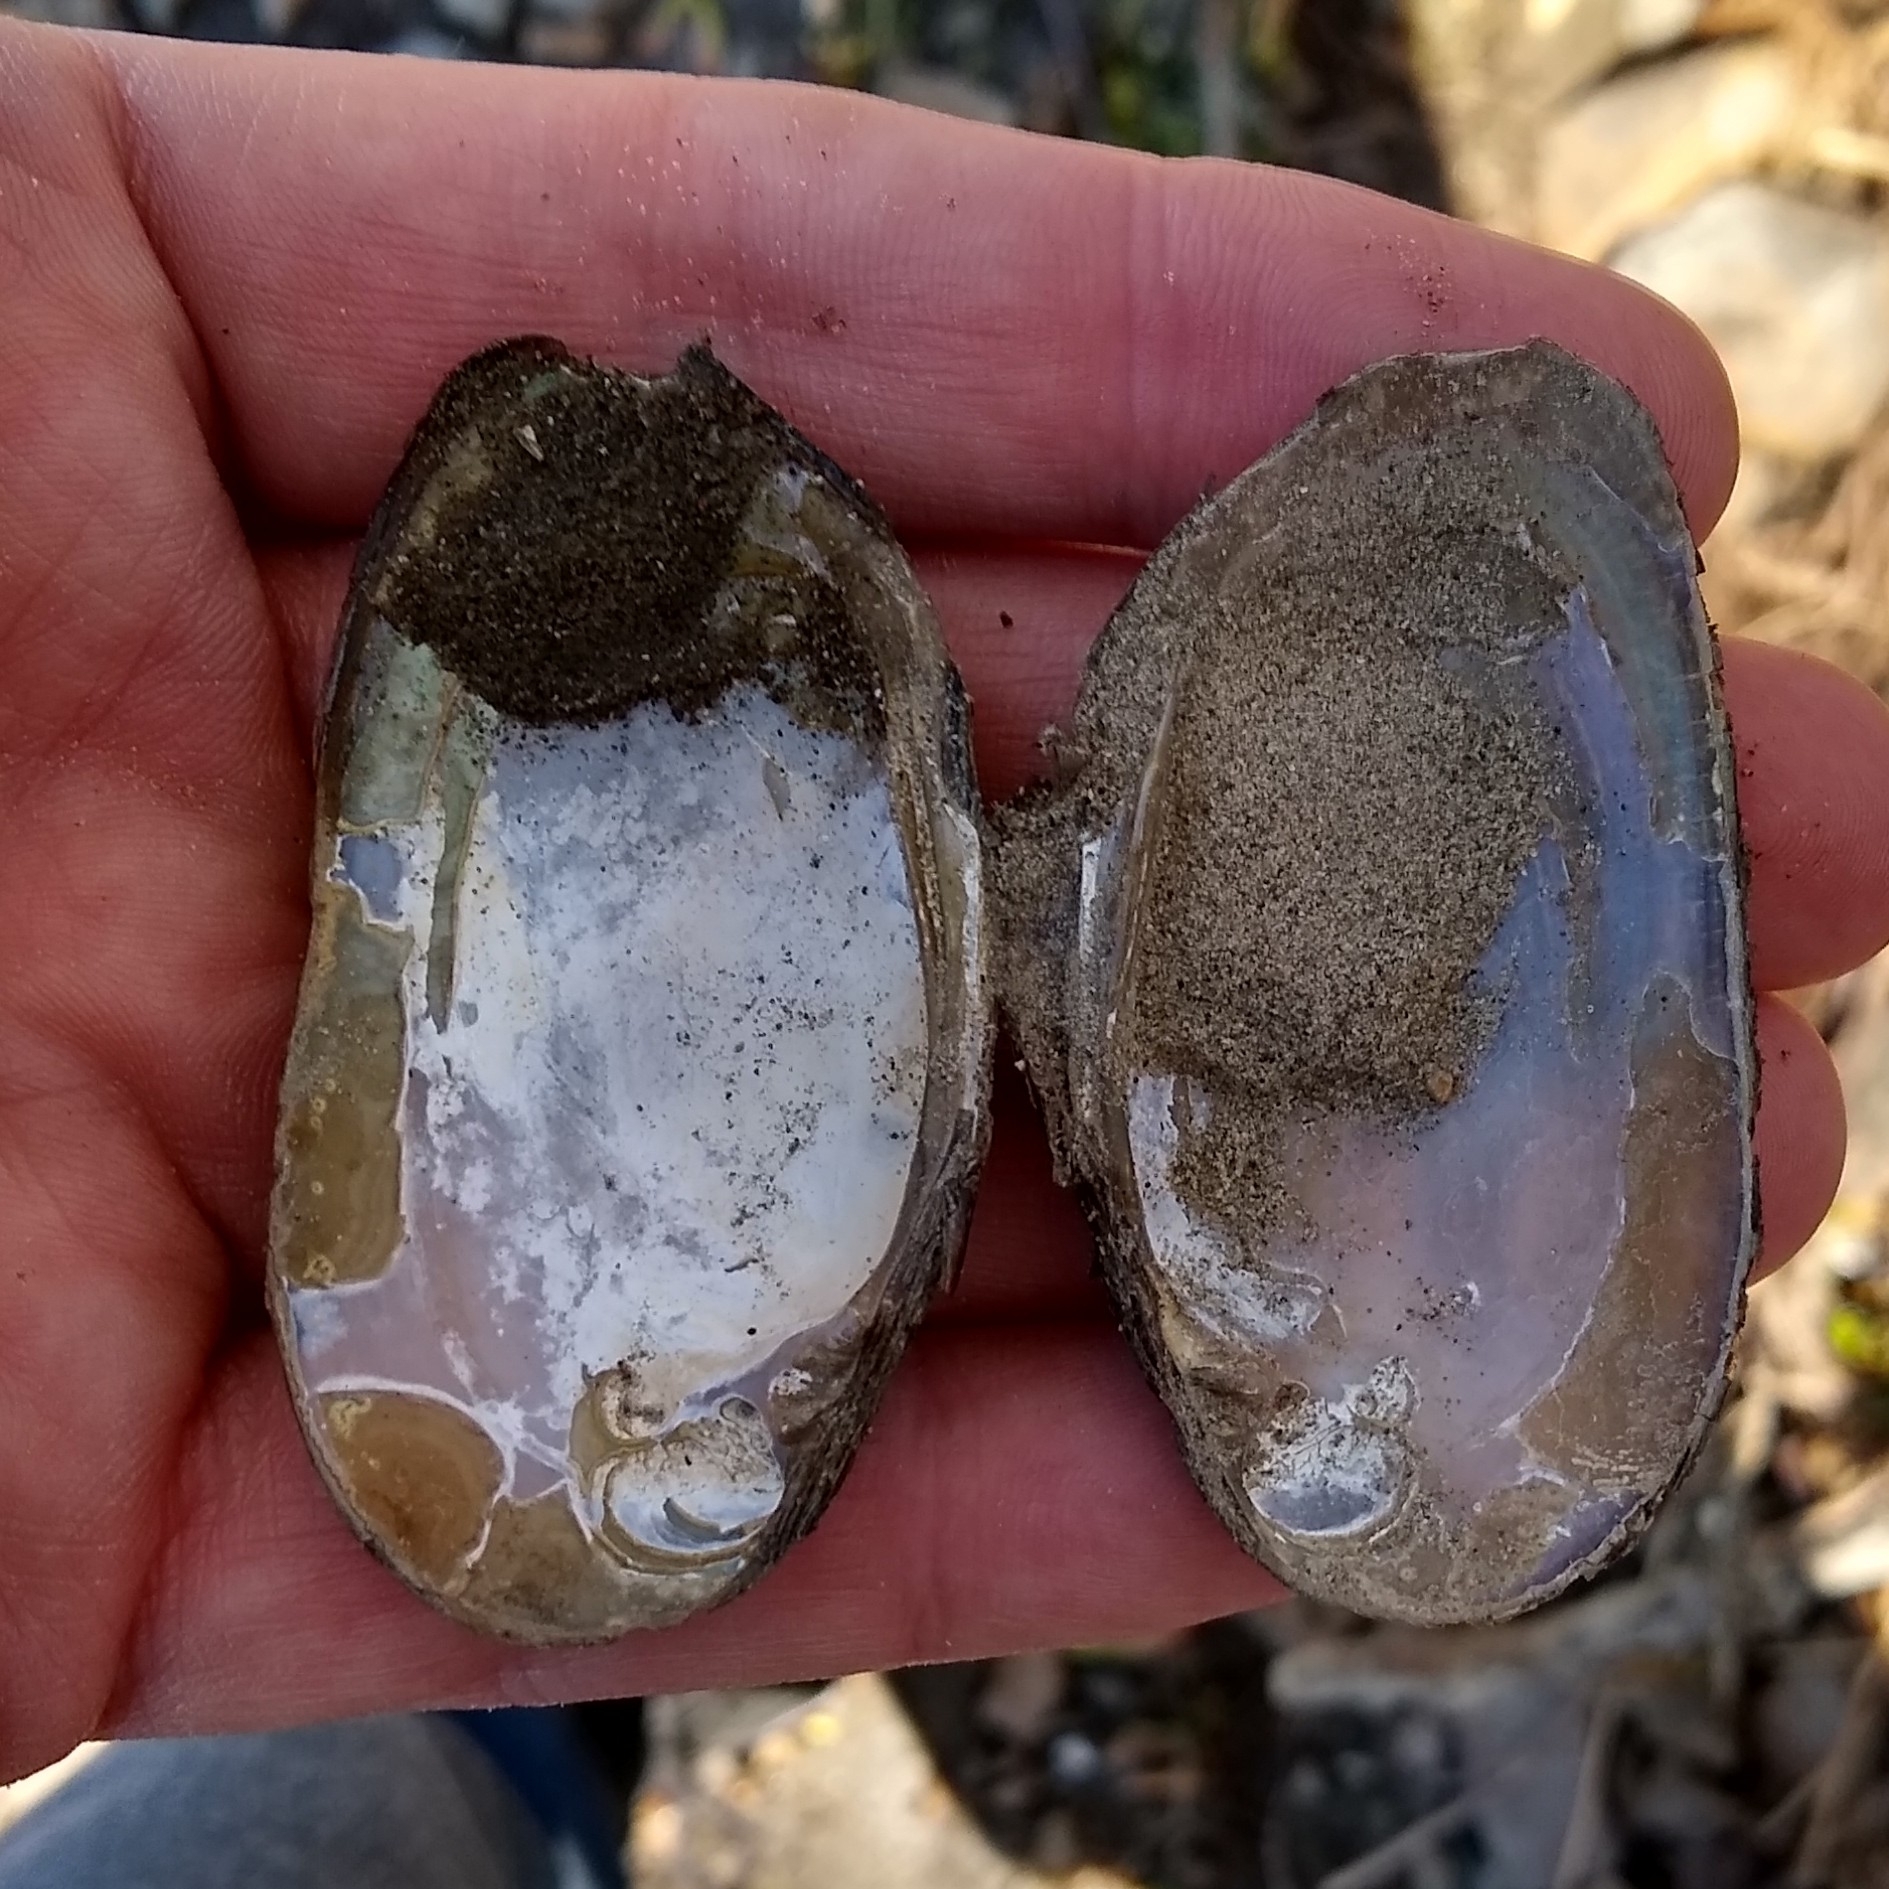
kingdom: Animalia
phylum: Mollusca
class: Bivalvia
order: Unionida
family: Unionidae
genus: Elliptio
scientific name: Elliptio complanata
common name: Eastern elliptio
